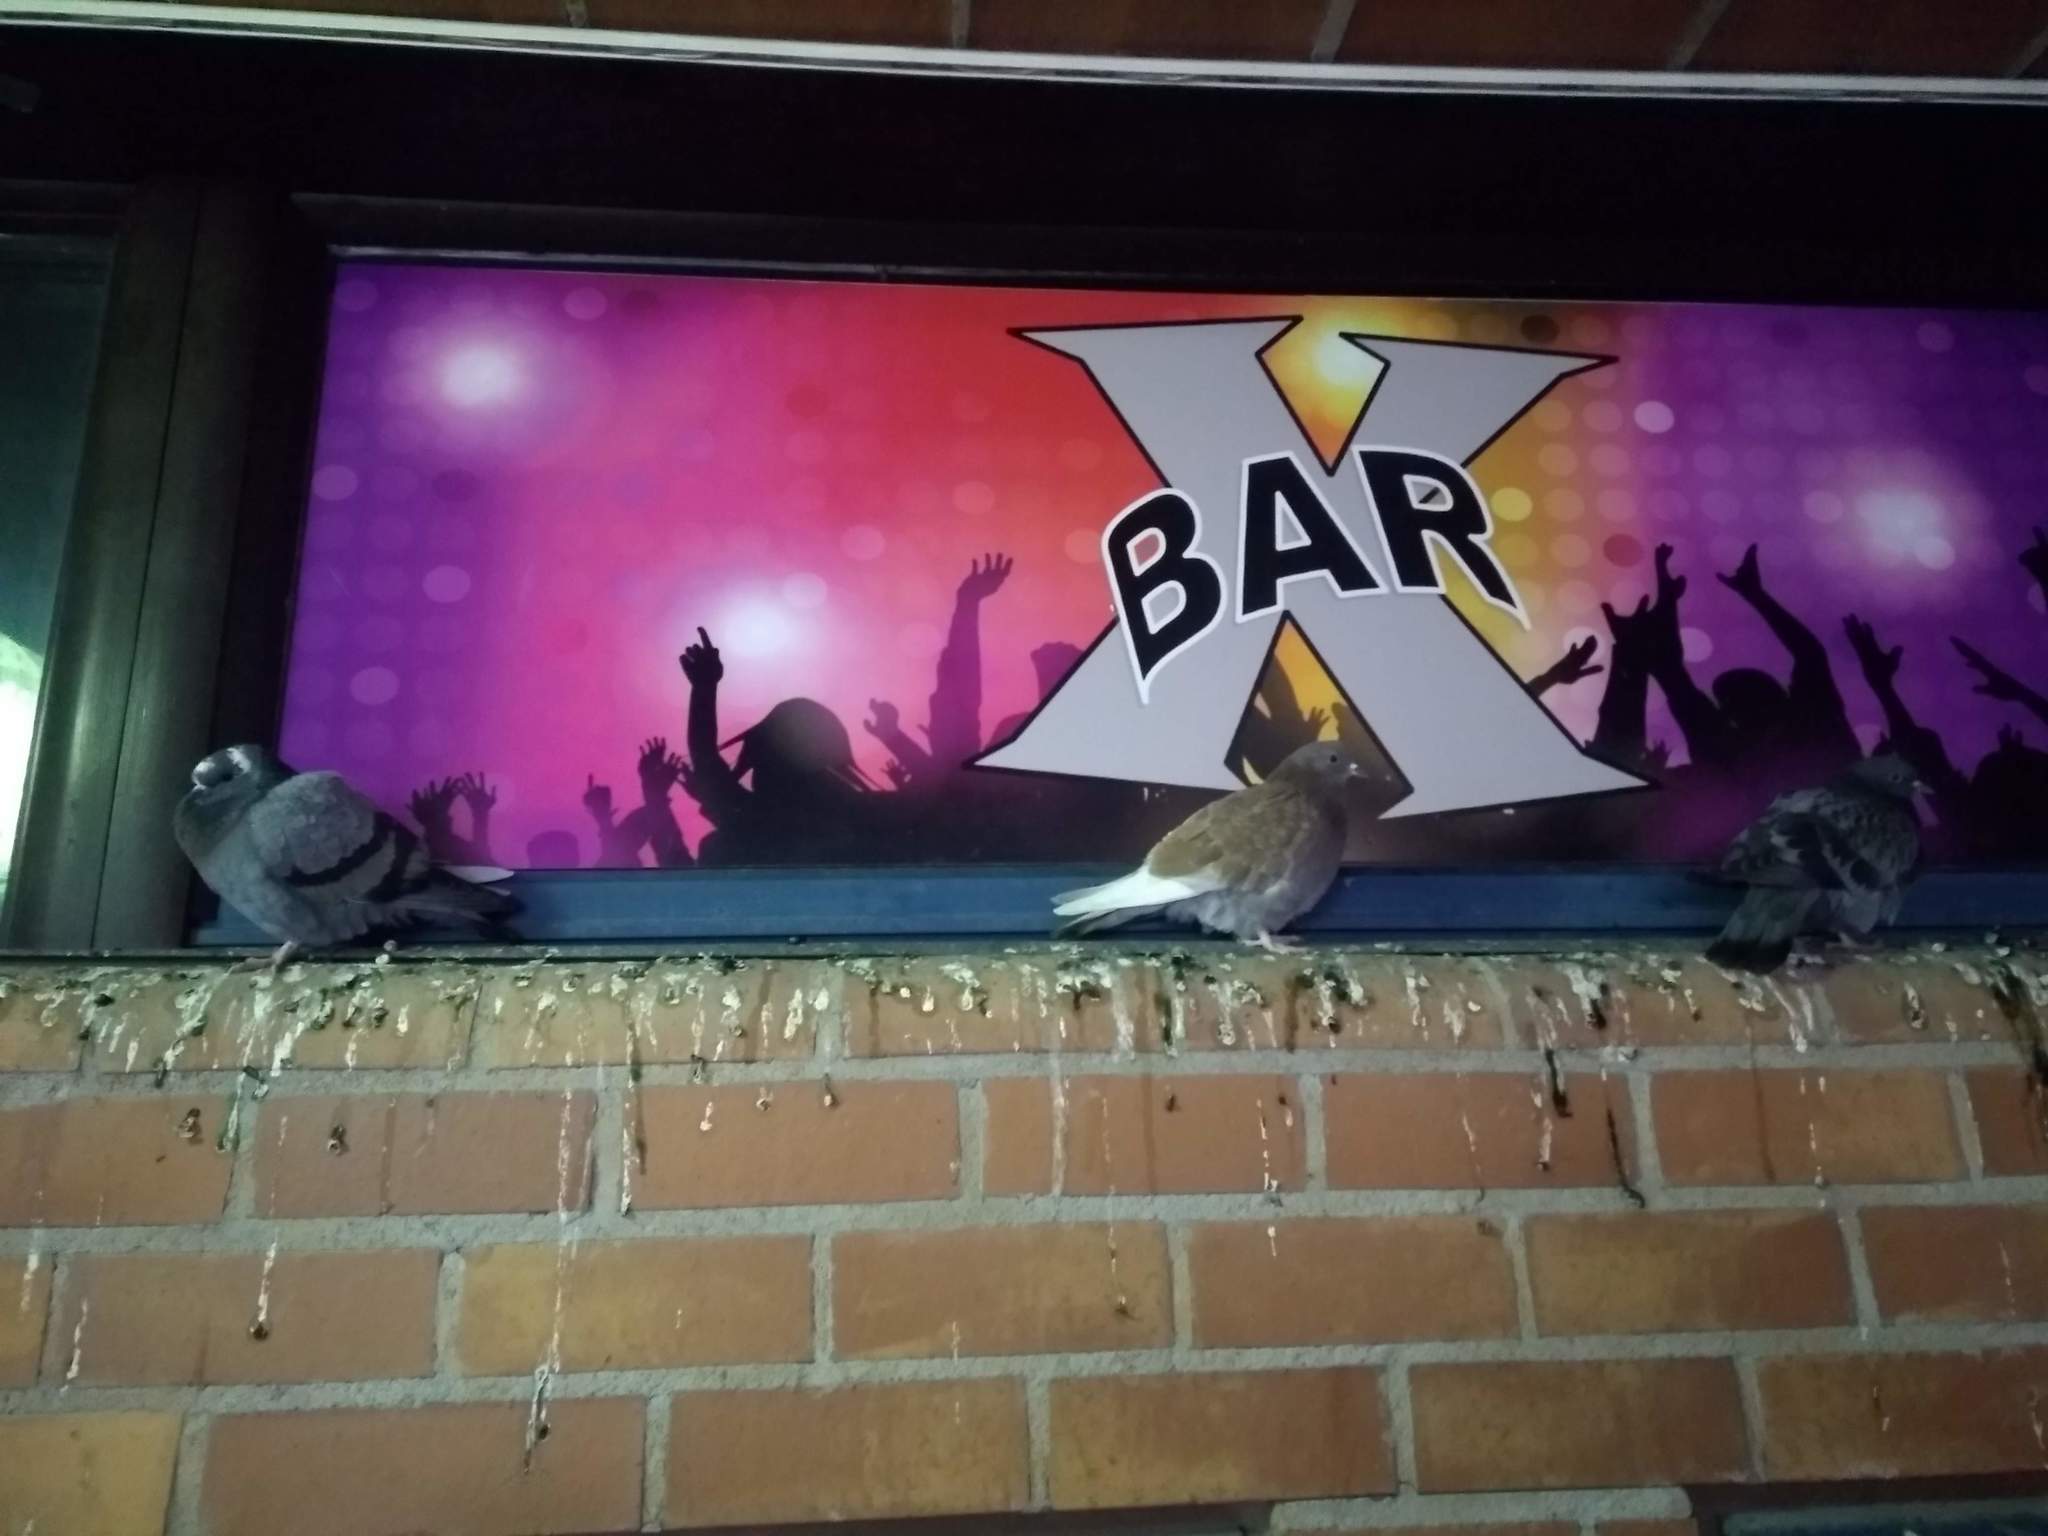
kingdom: Animalia
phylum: Chordata
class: Aves
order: Columbiformes
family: Columbidae
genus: Columba
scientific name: Columba livia
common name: Rock pigeon
